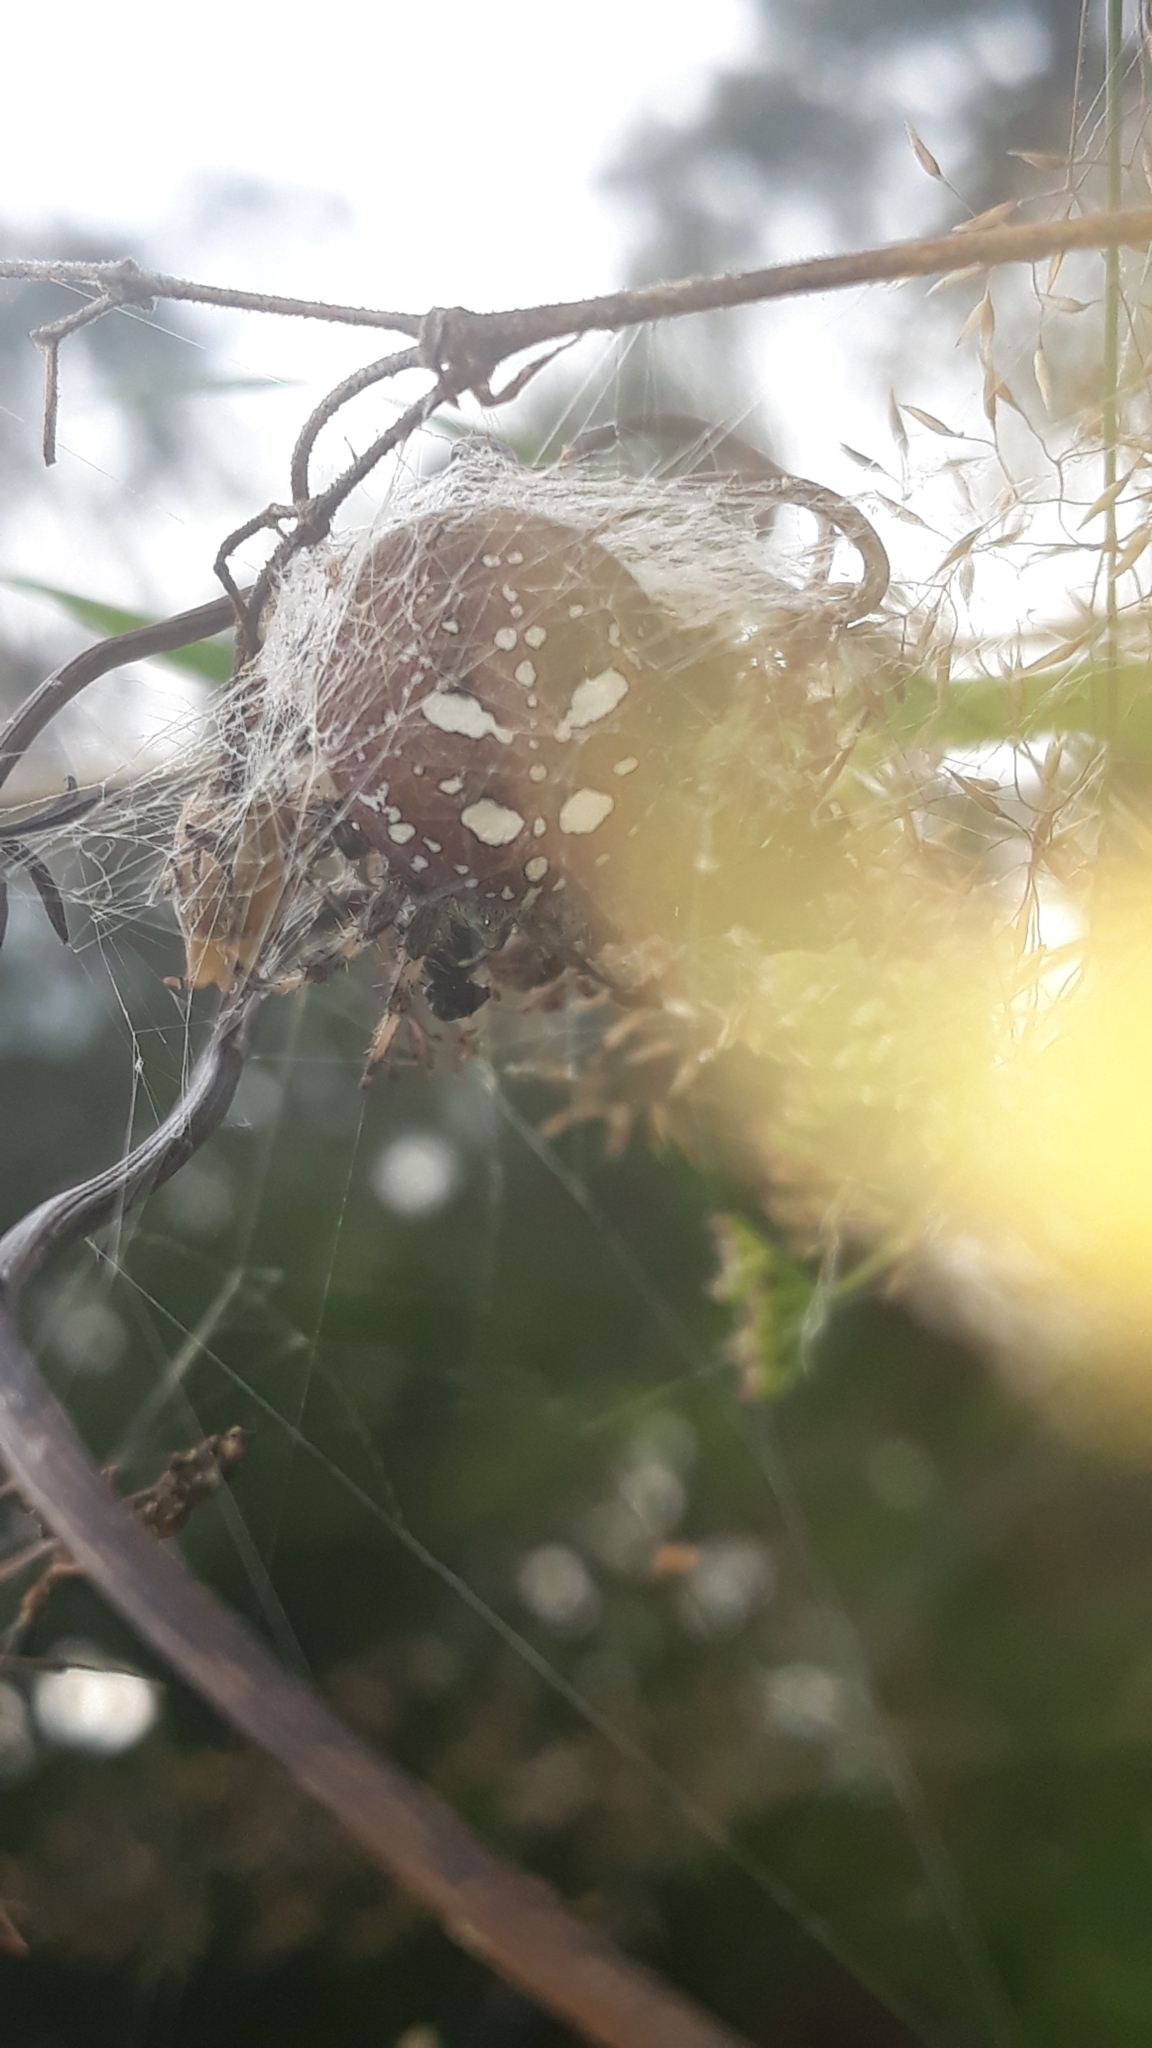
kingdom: Animalia
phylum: Arthropoda
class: Arachnida
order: Araneae
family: Araneidae
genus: Araneus
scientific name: Araneus quadratus
